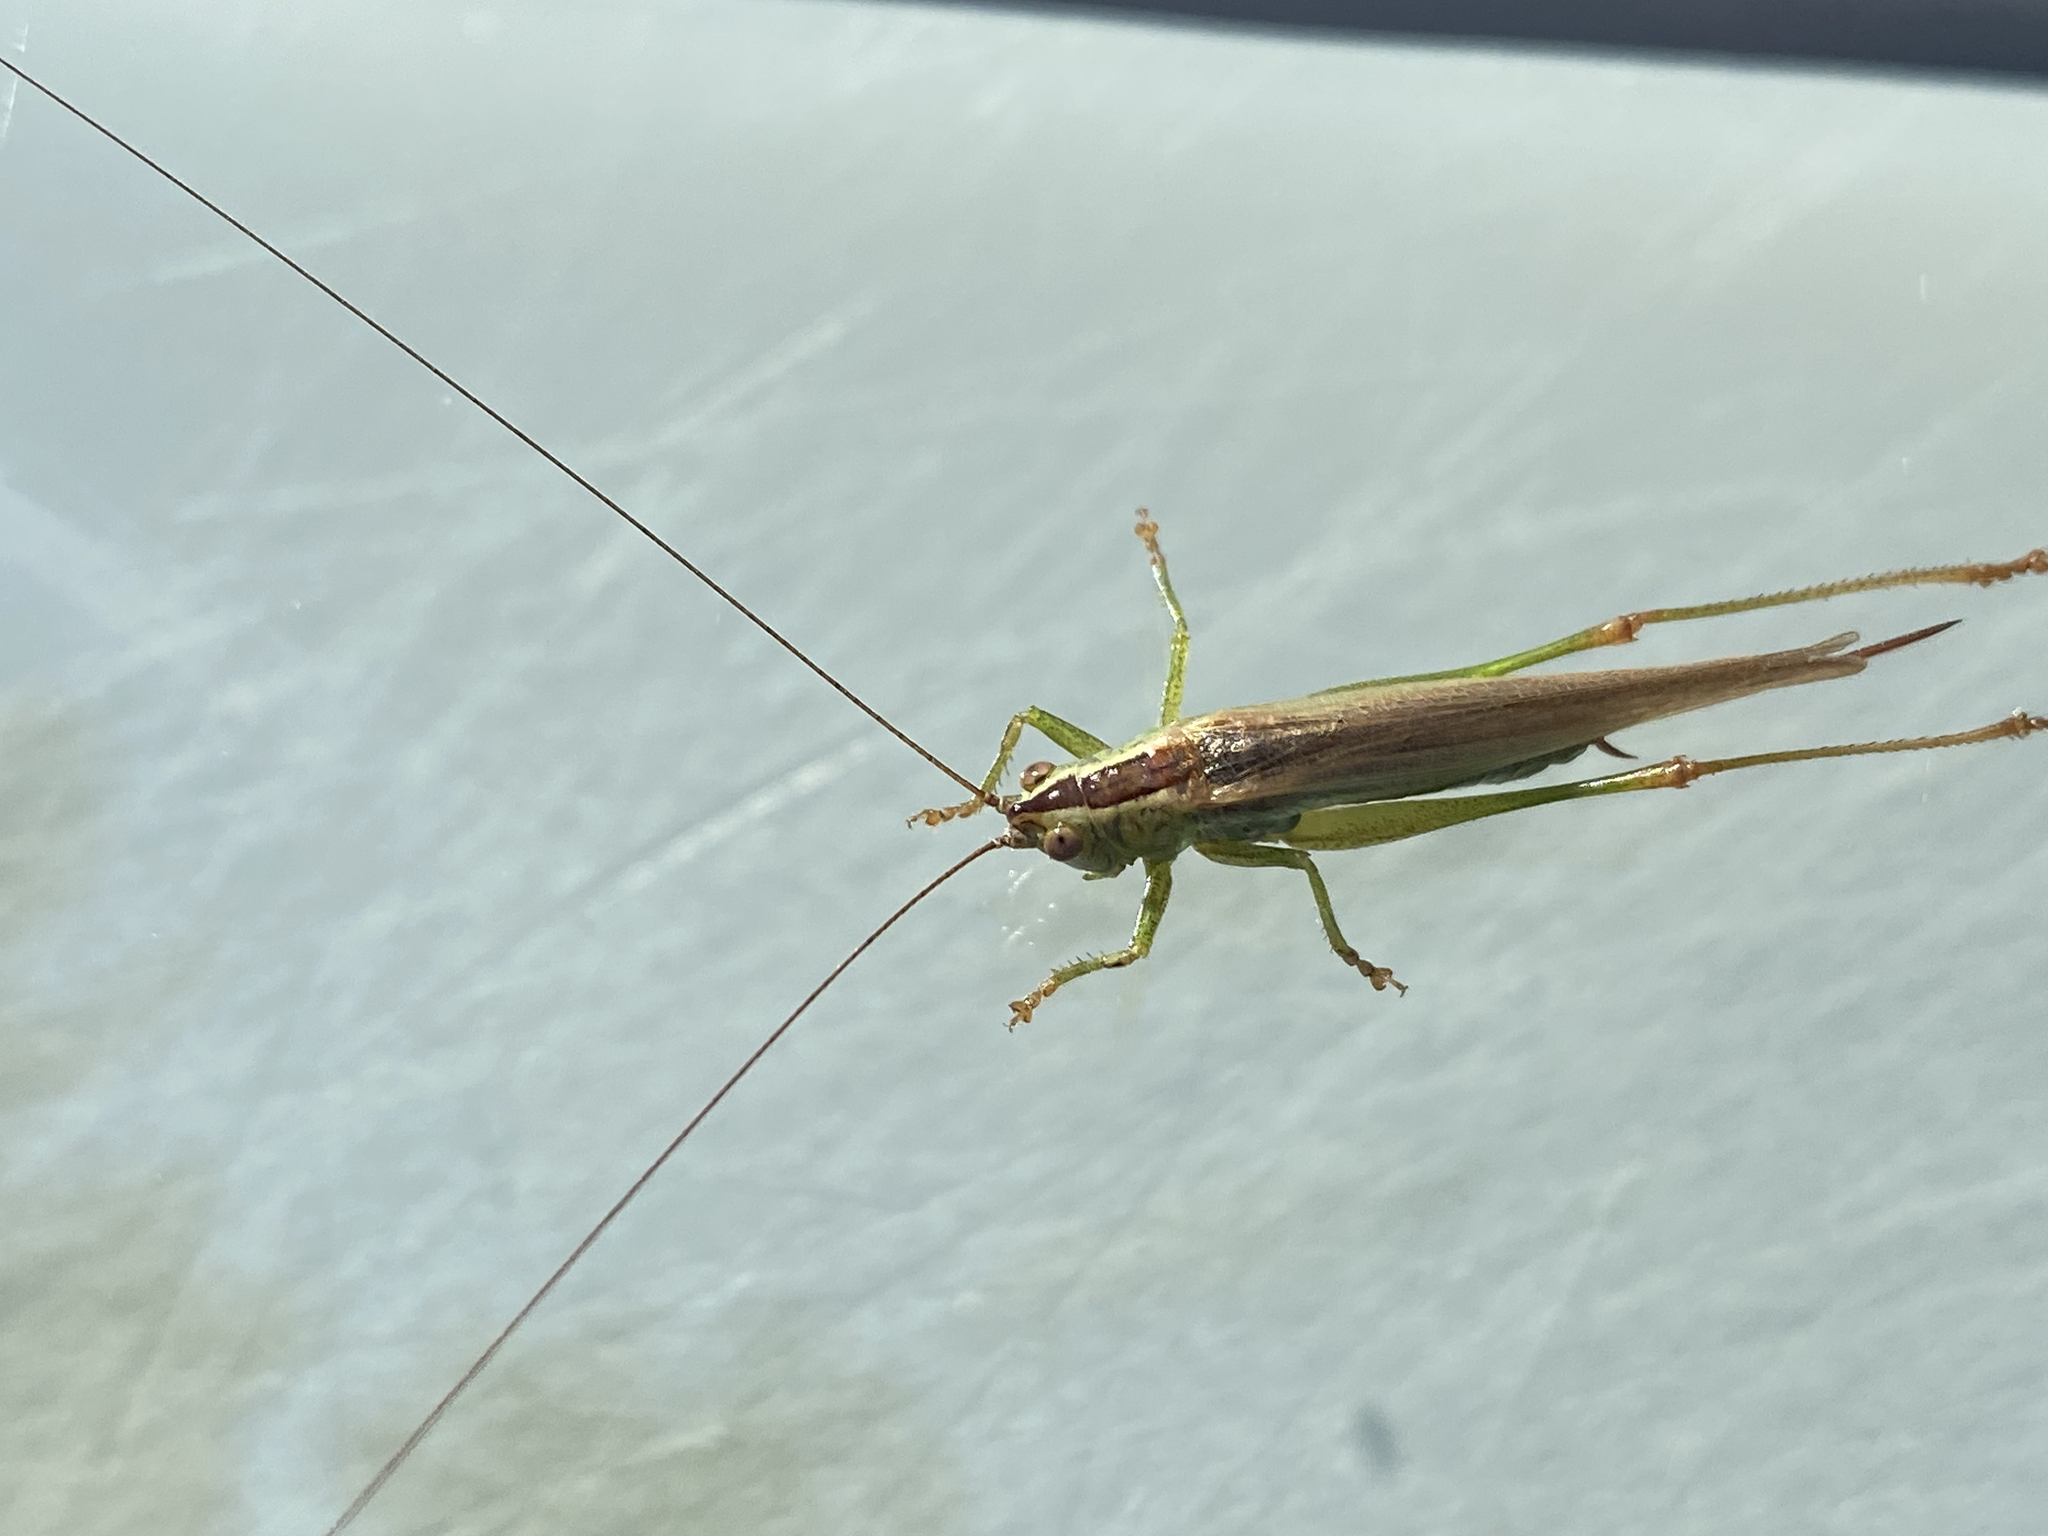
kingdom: Animalia
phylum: Arthropoda
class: Insecta
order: Orthoptera
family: Tettigoniidae
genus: Conocephalus
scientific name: Conocephalus fuscus
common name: Long-winged conehead
